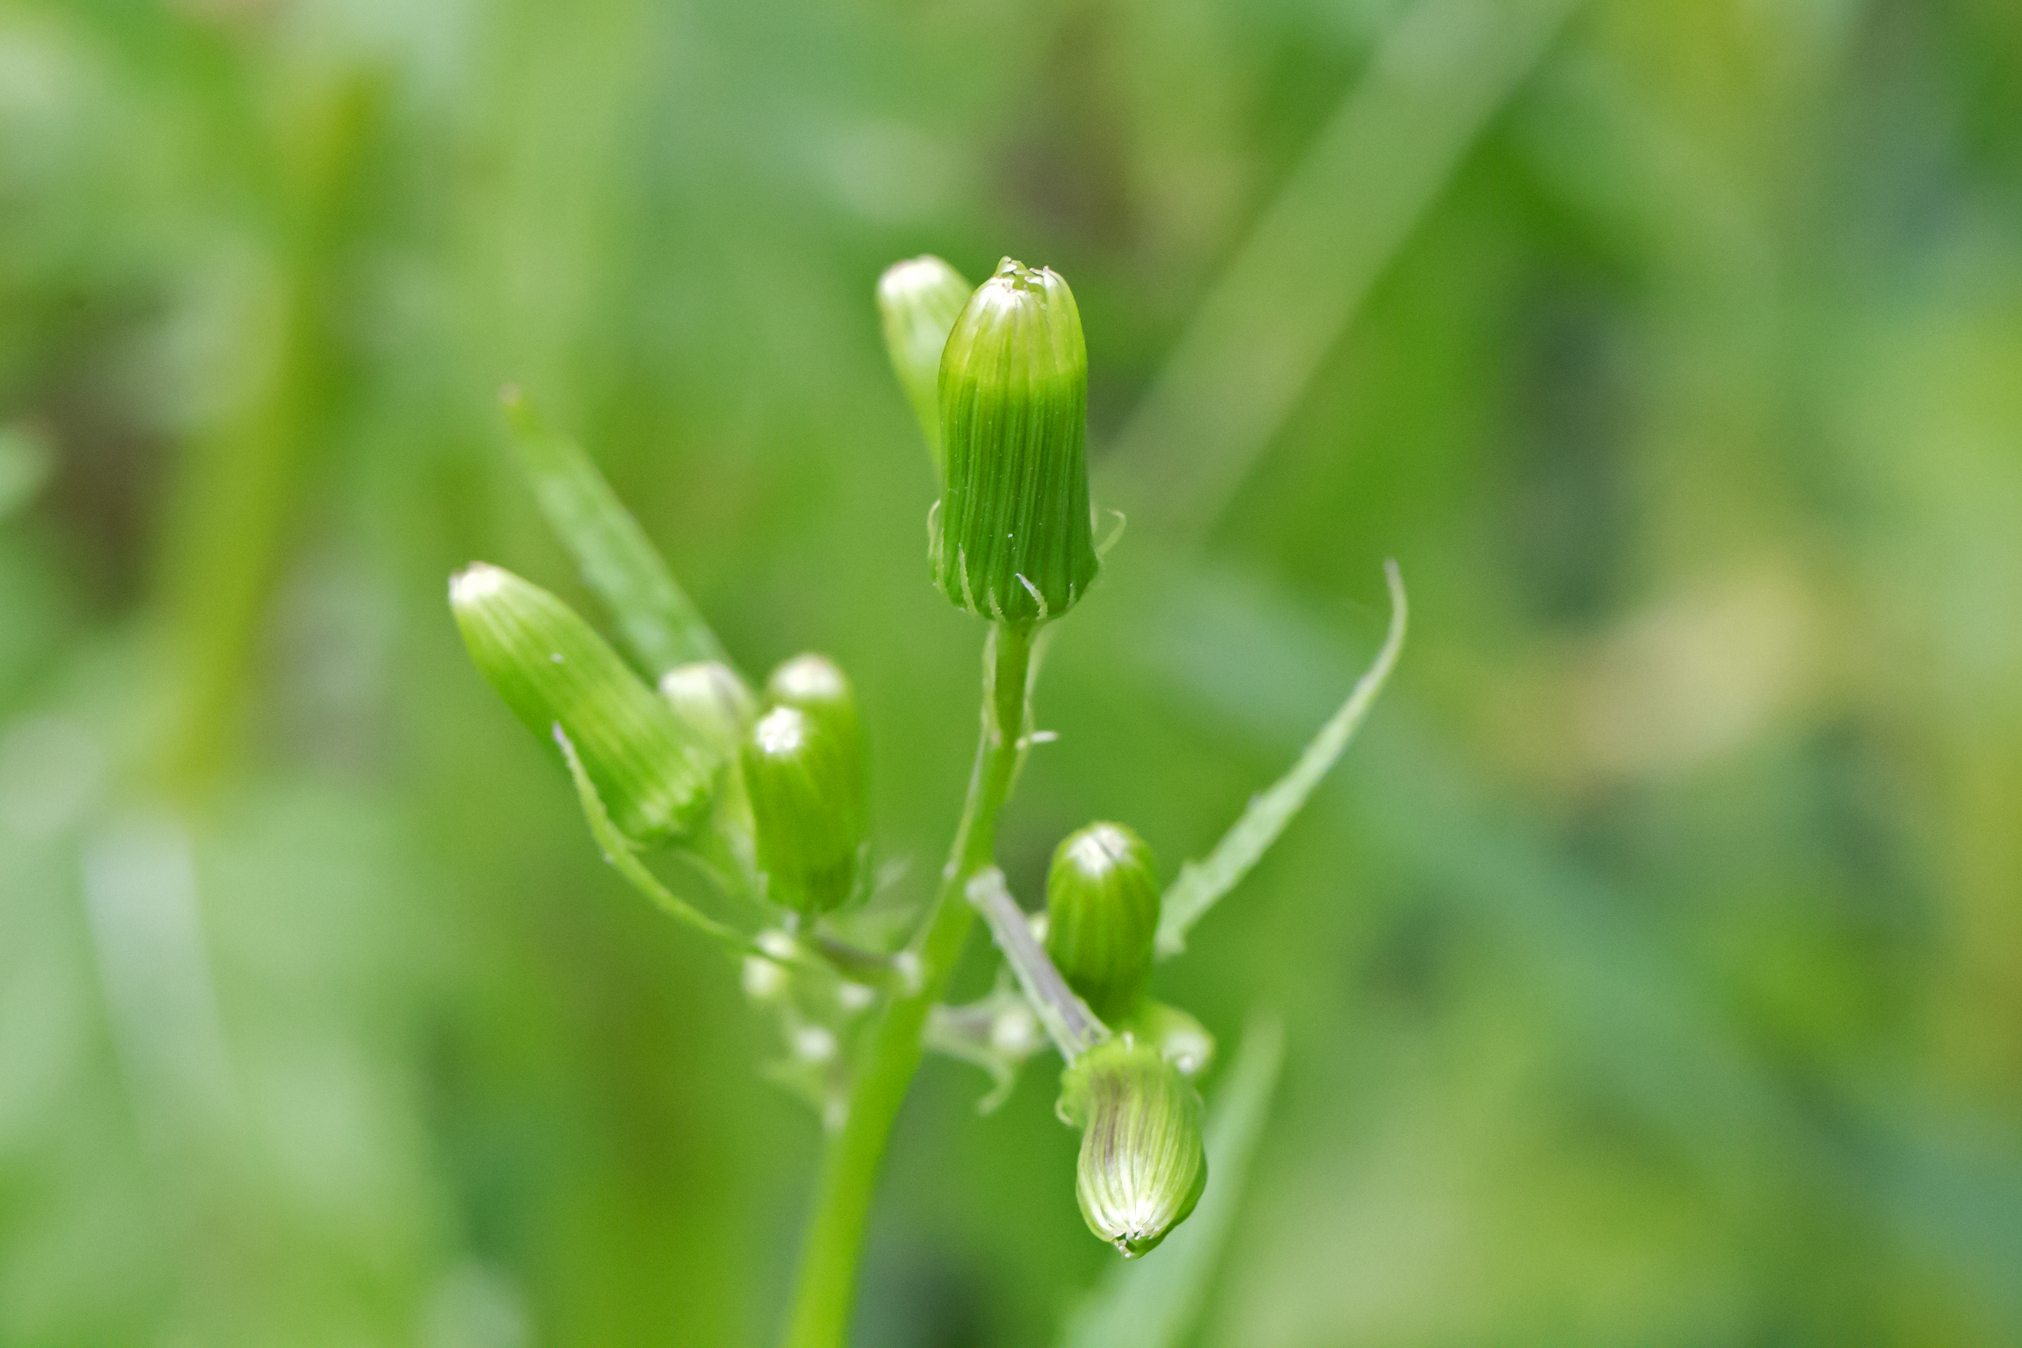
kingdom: Plantae
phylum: Tracheophyta
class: Magnoliopsida
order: Asterales
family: Asteraceae
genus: Erechtites
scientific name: Erechtites hieraciifolius
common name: American burnweed
